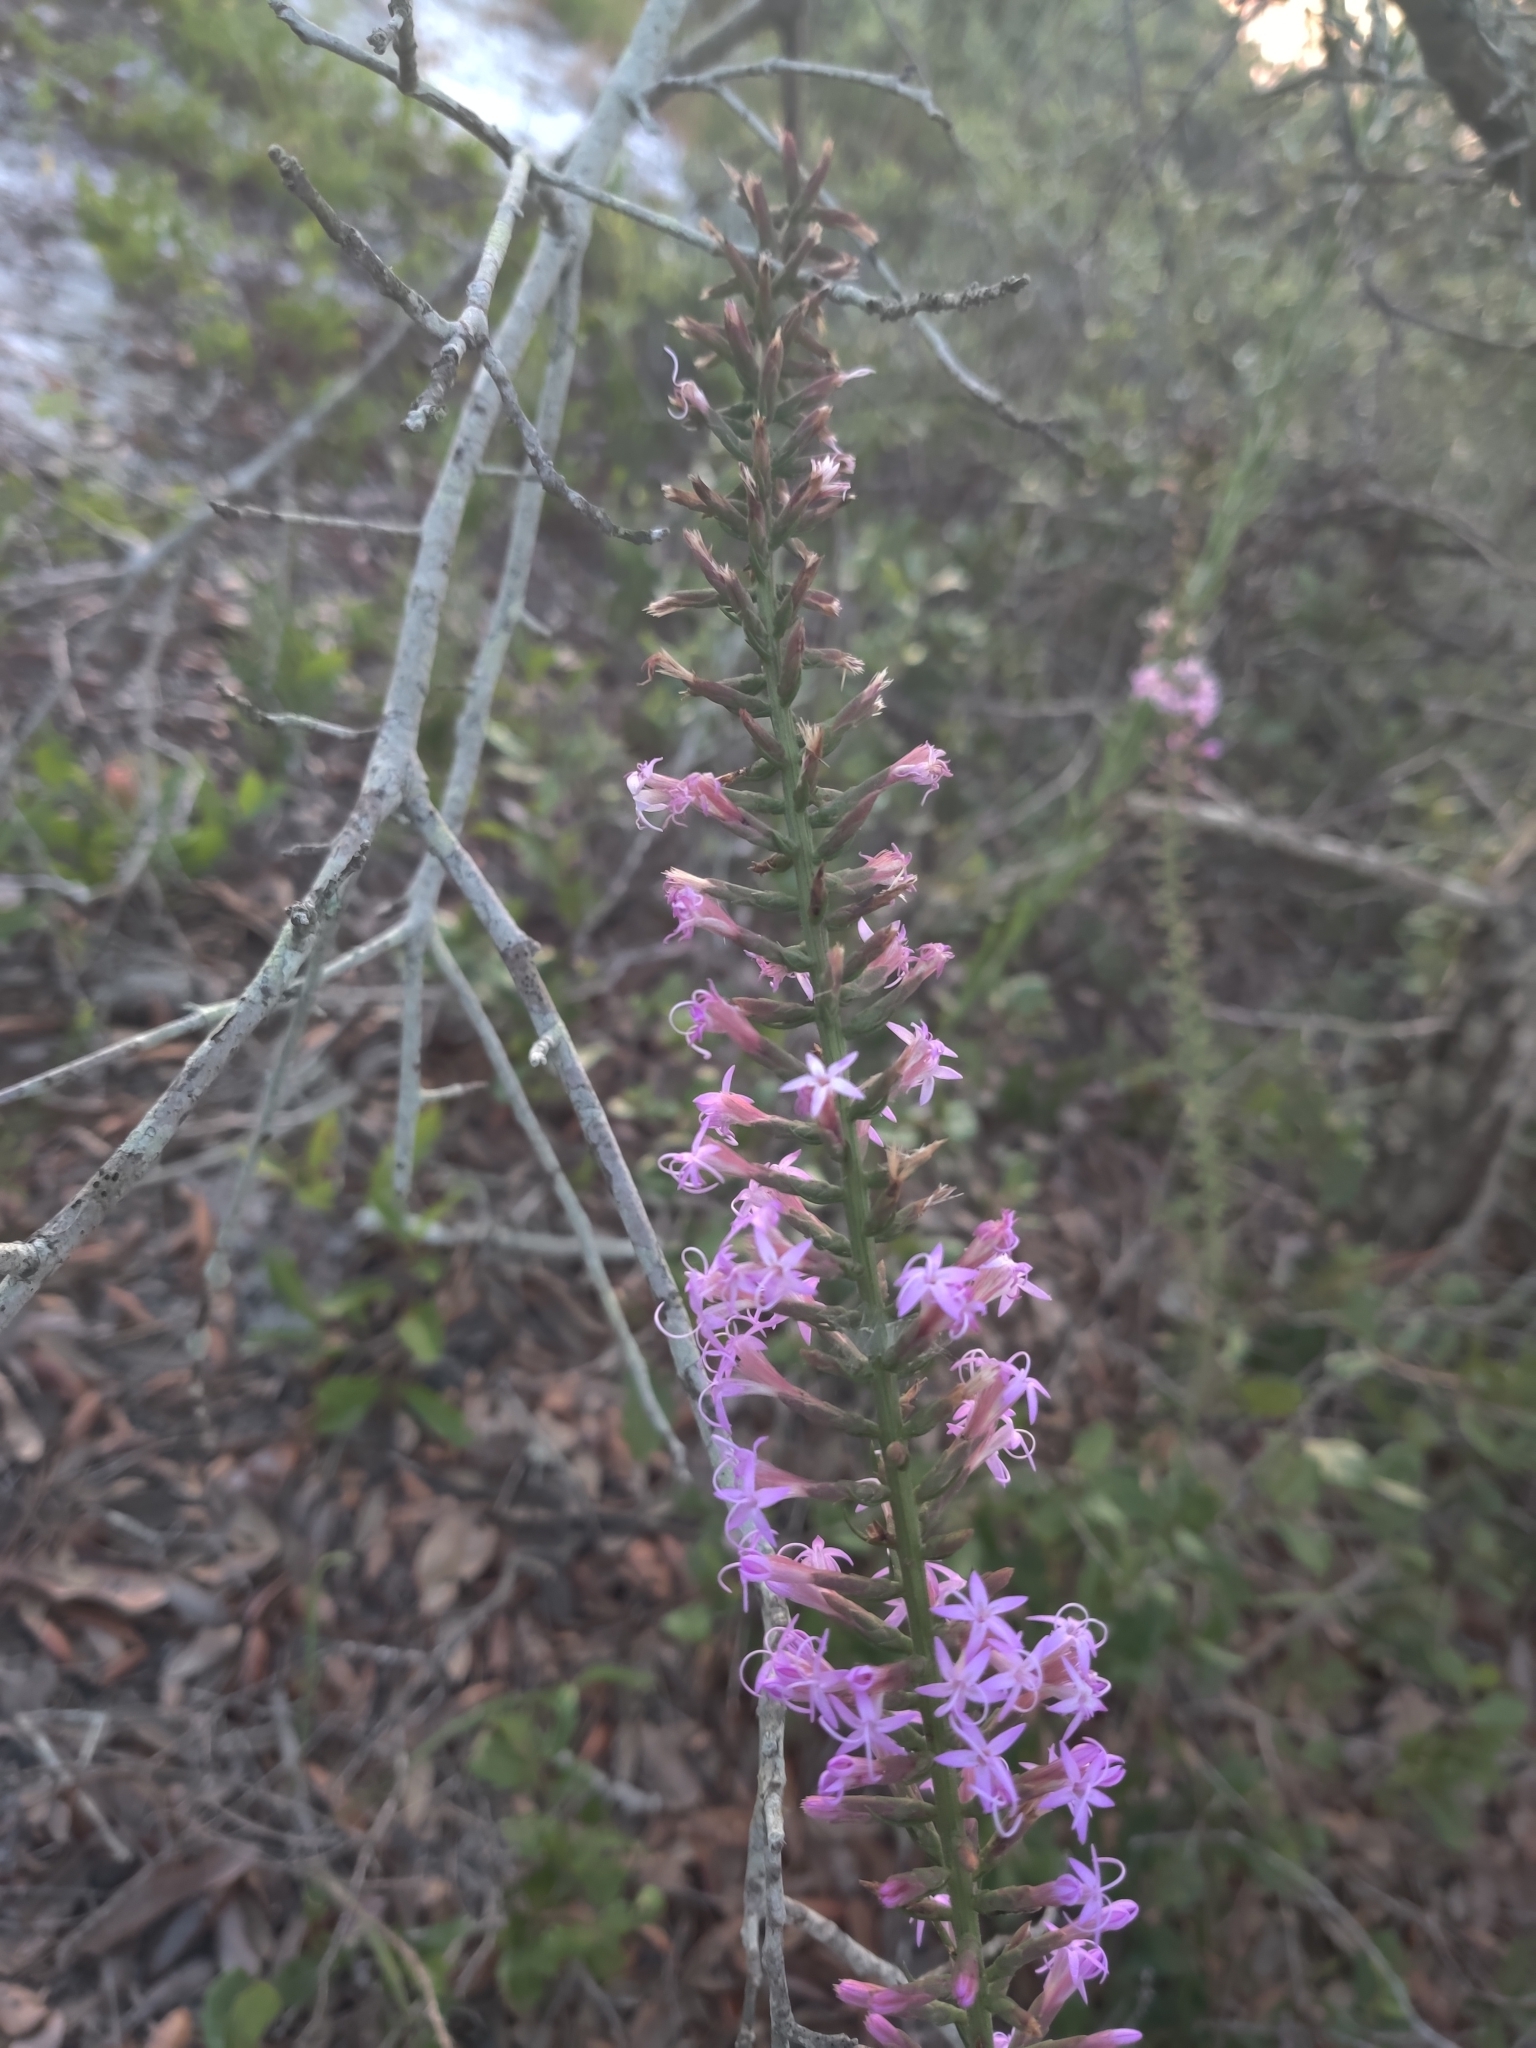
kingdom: Plantae
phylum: Tracheophyta
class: Magnoliopsida
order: Asterales
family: Asteraceae
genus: Liatris
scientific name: Liatris provincialis
